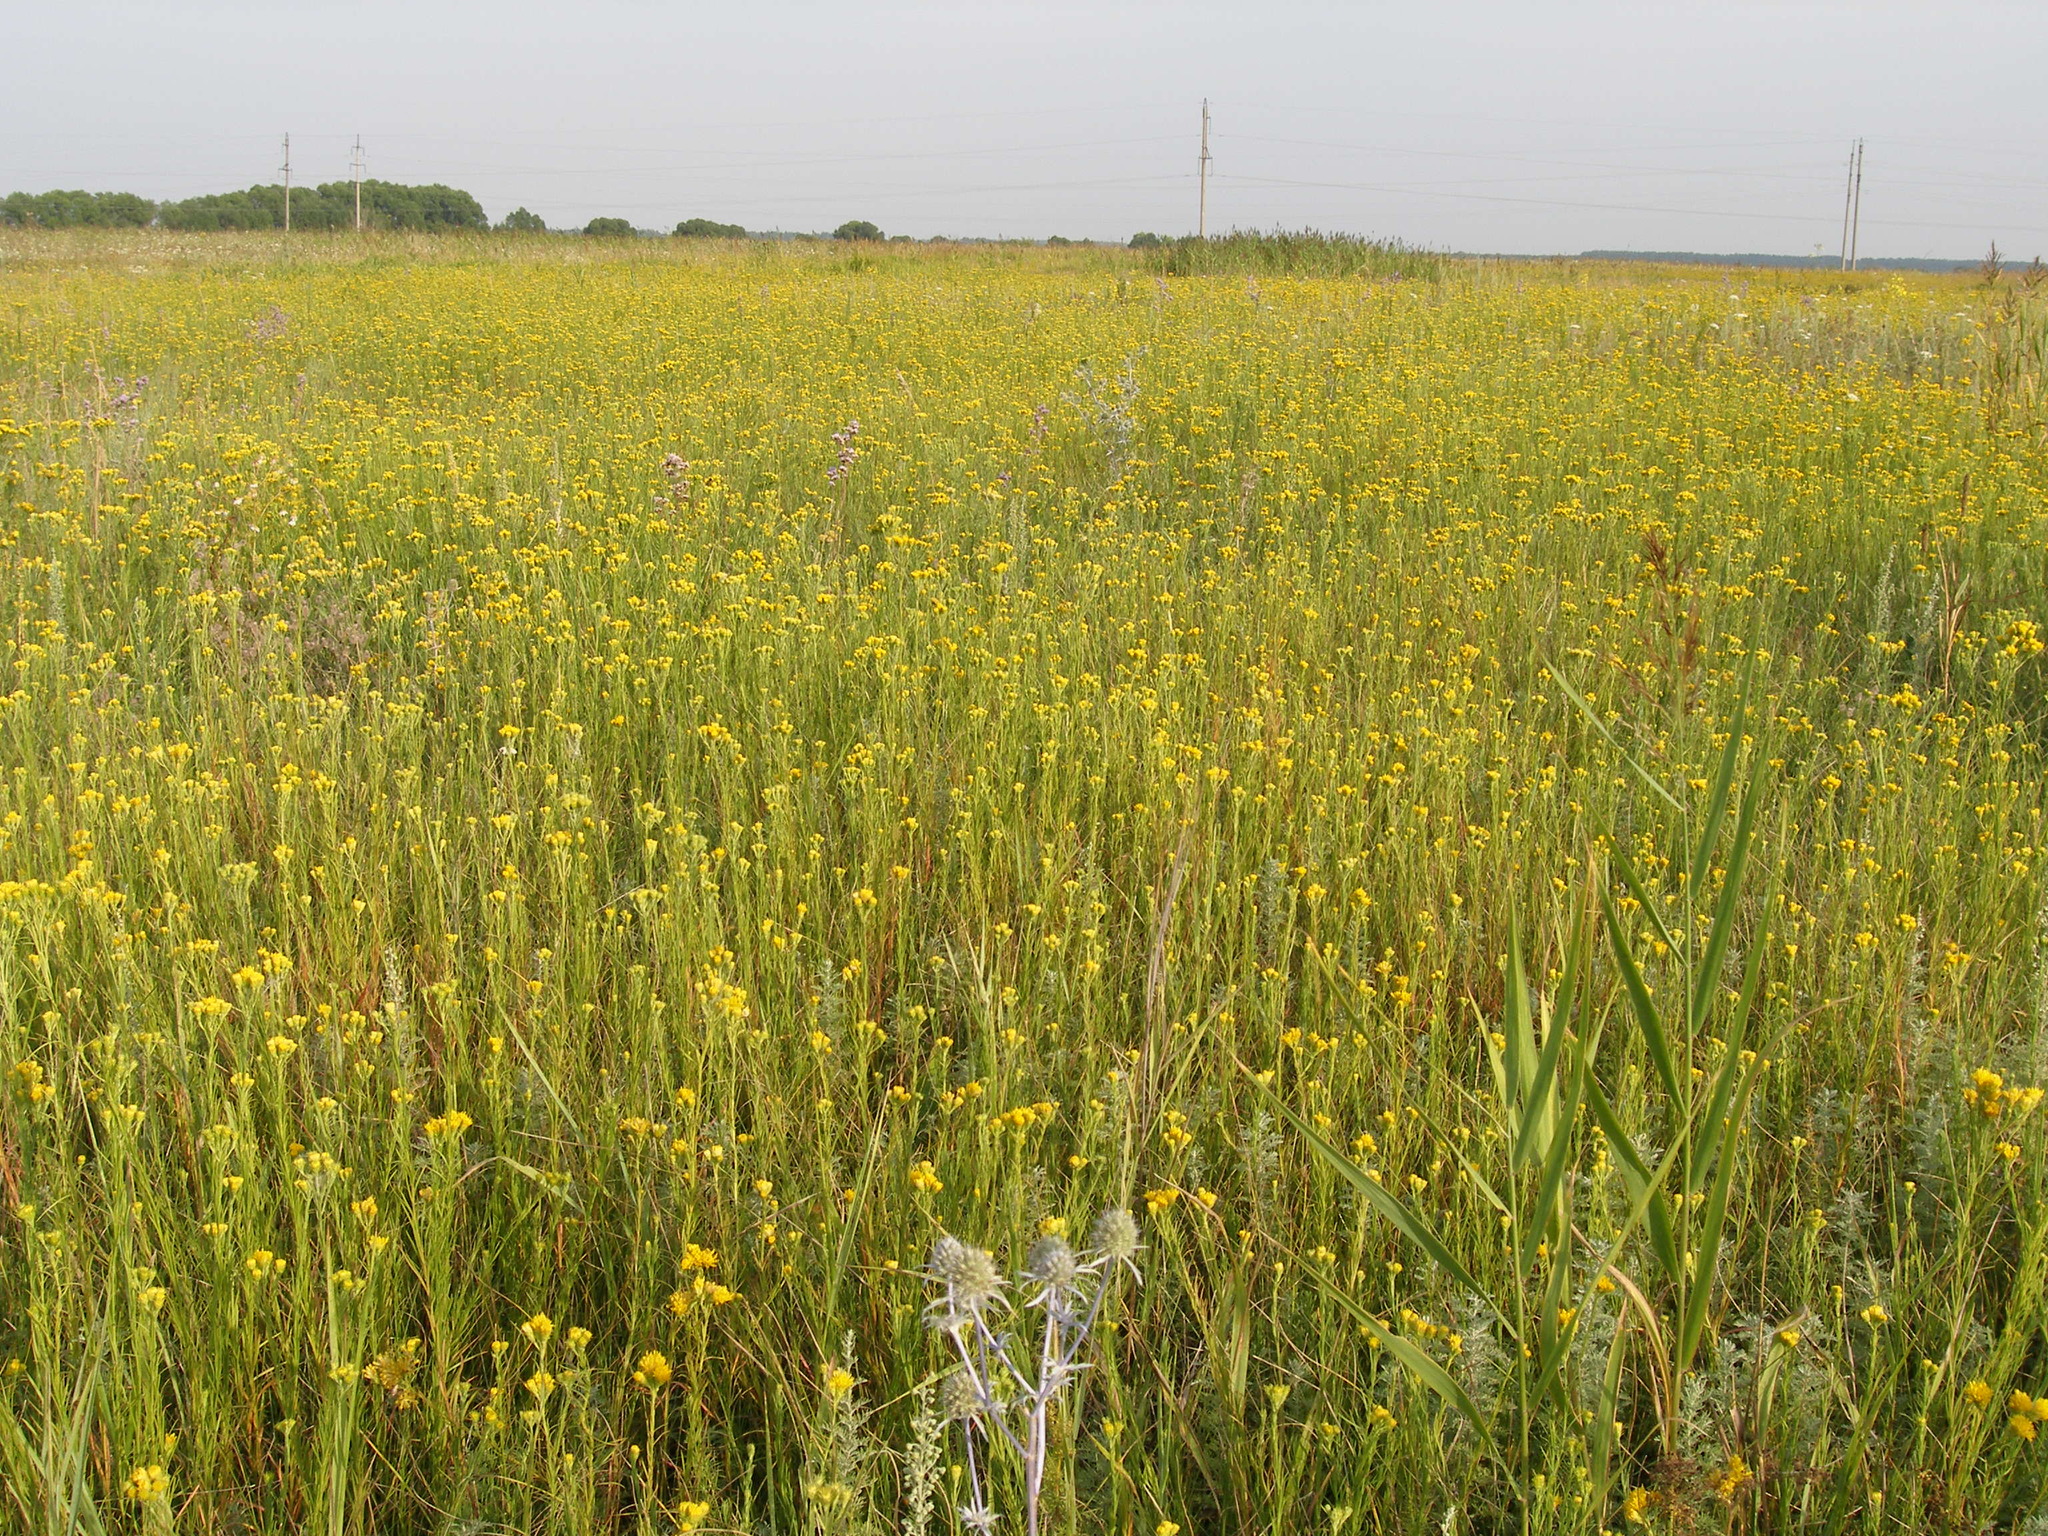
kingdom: Plantae
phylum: Tracheophyta
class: Magnoliopsida
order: Asterales
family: Asteraceae
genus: Galatella
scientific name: Galatella linosyris
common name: Goldilocks aster
